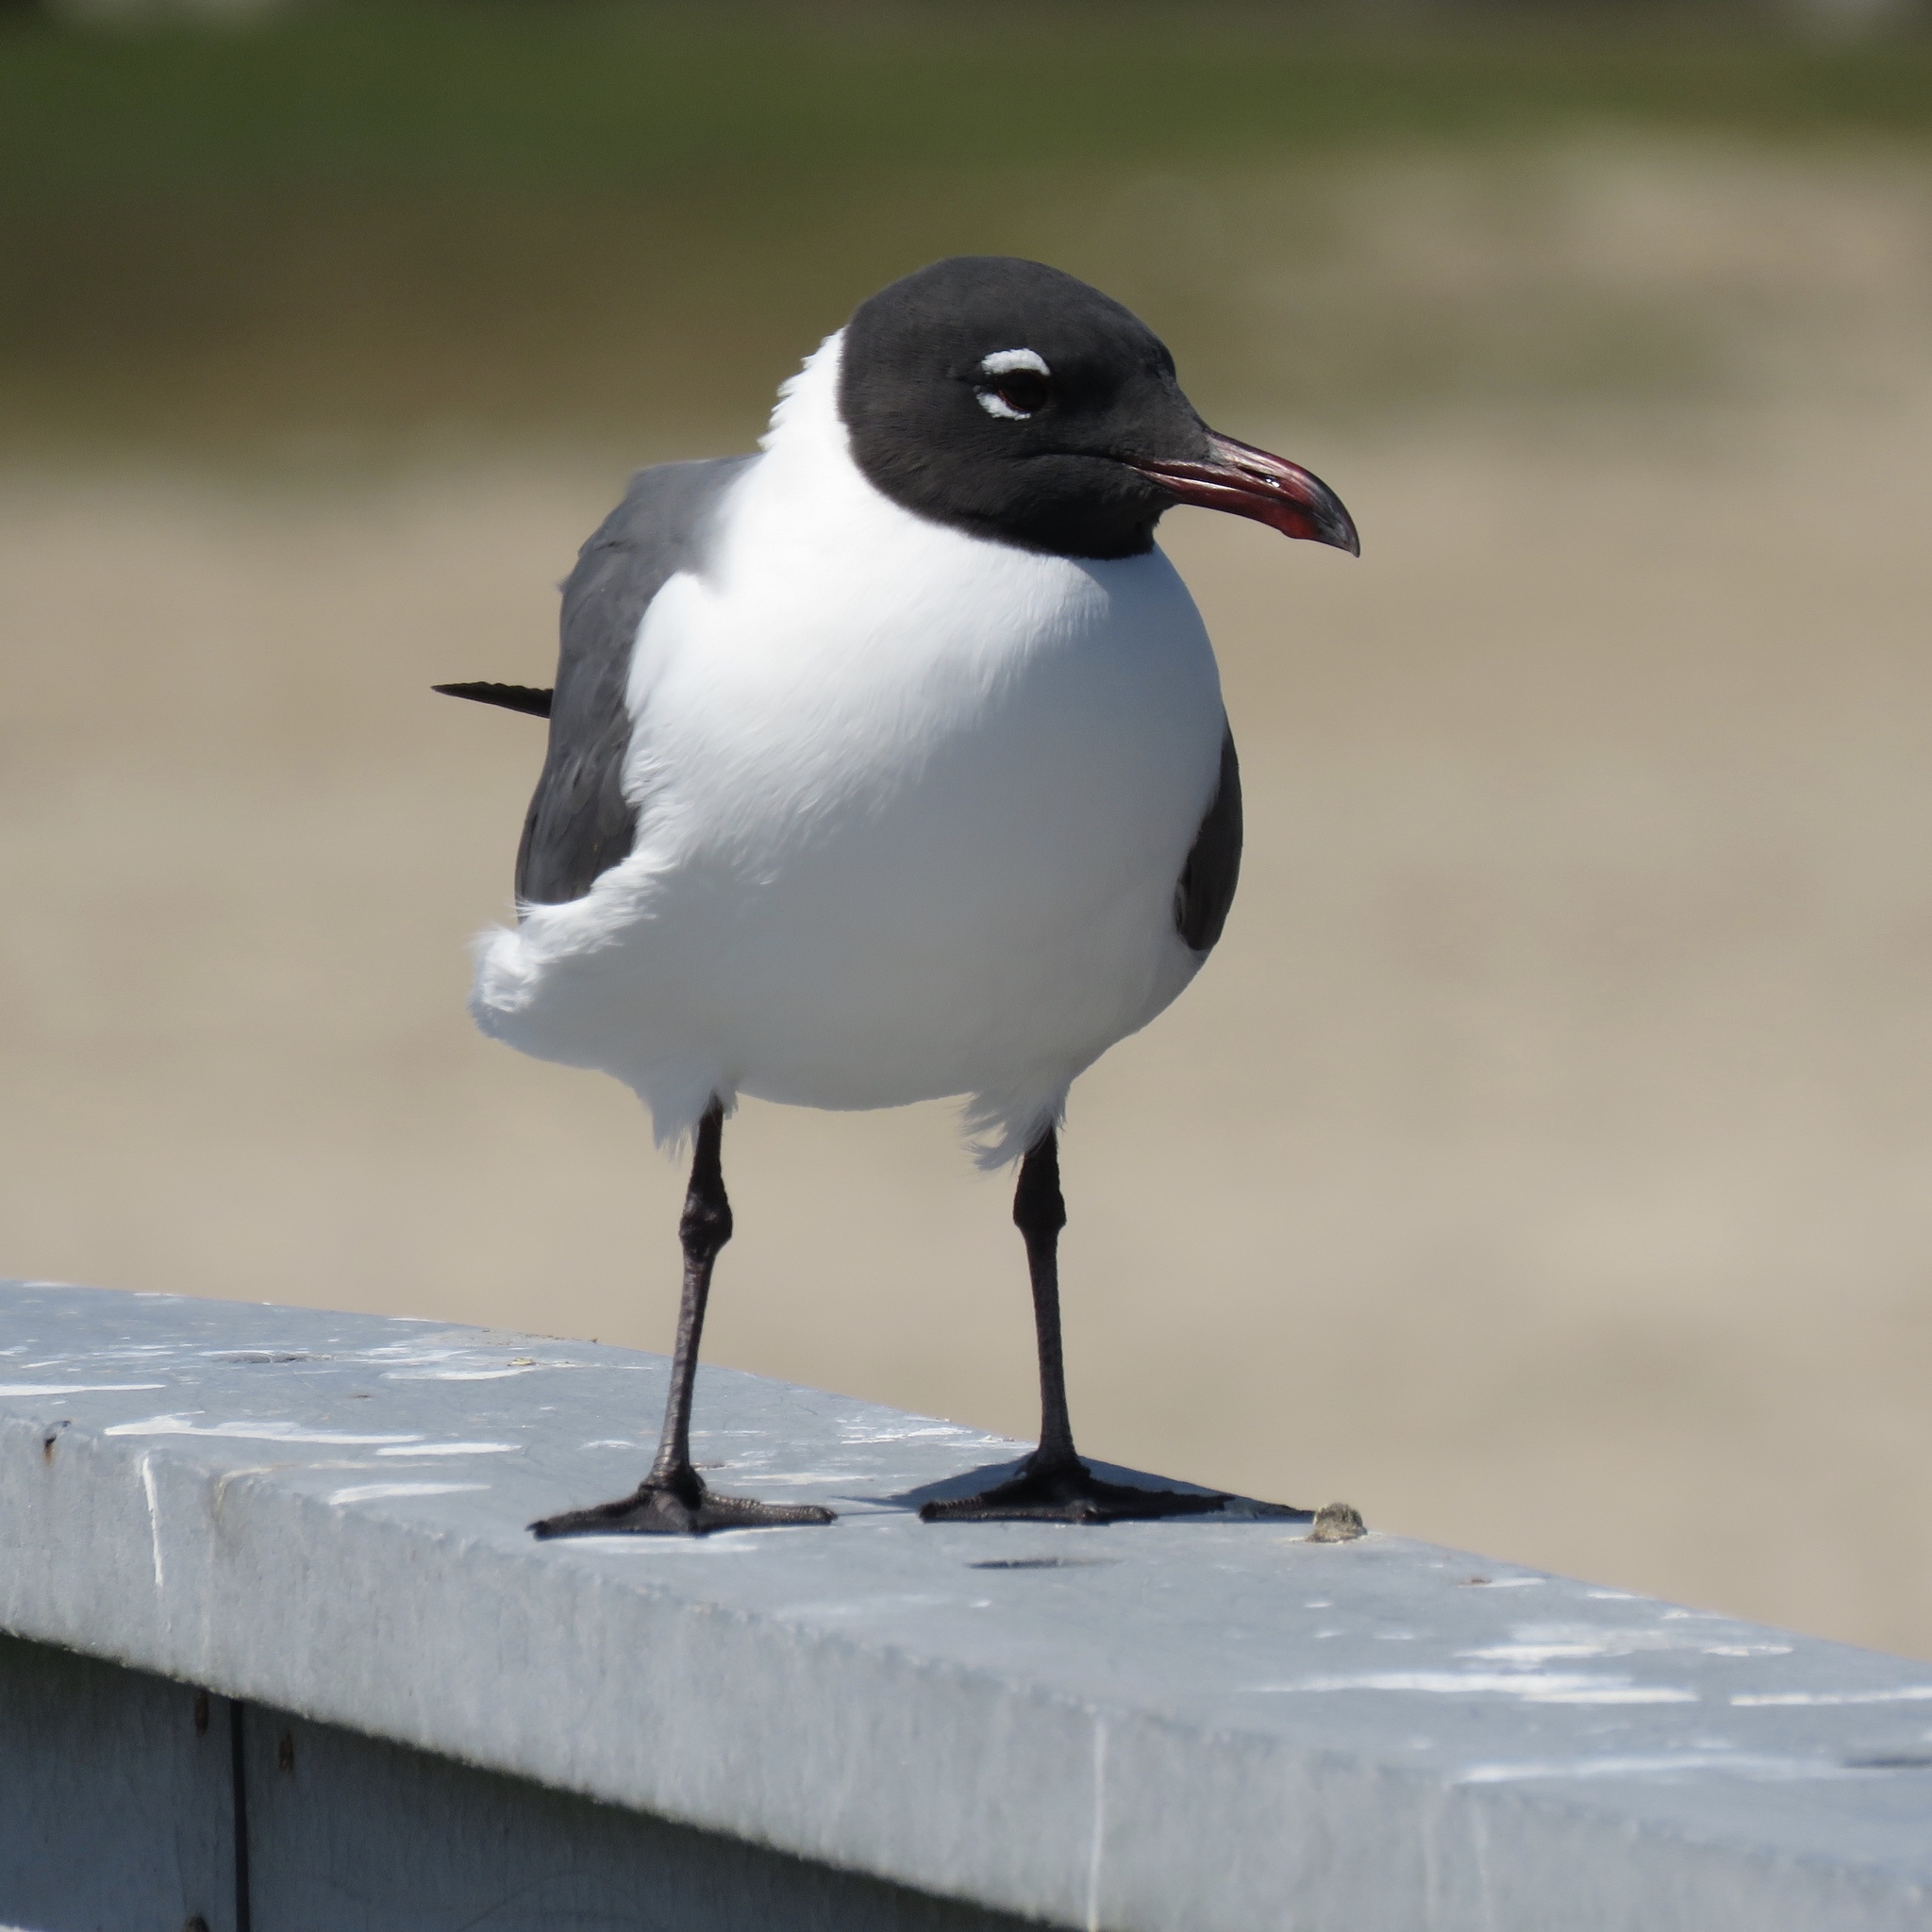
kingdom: Animalia
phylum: Chordata
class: Aves
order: Charadriiformes
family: Laridae
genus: Leucophaeus
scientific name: Leucophaeus atricilla
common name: Laughing gull
